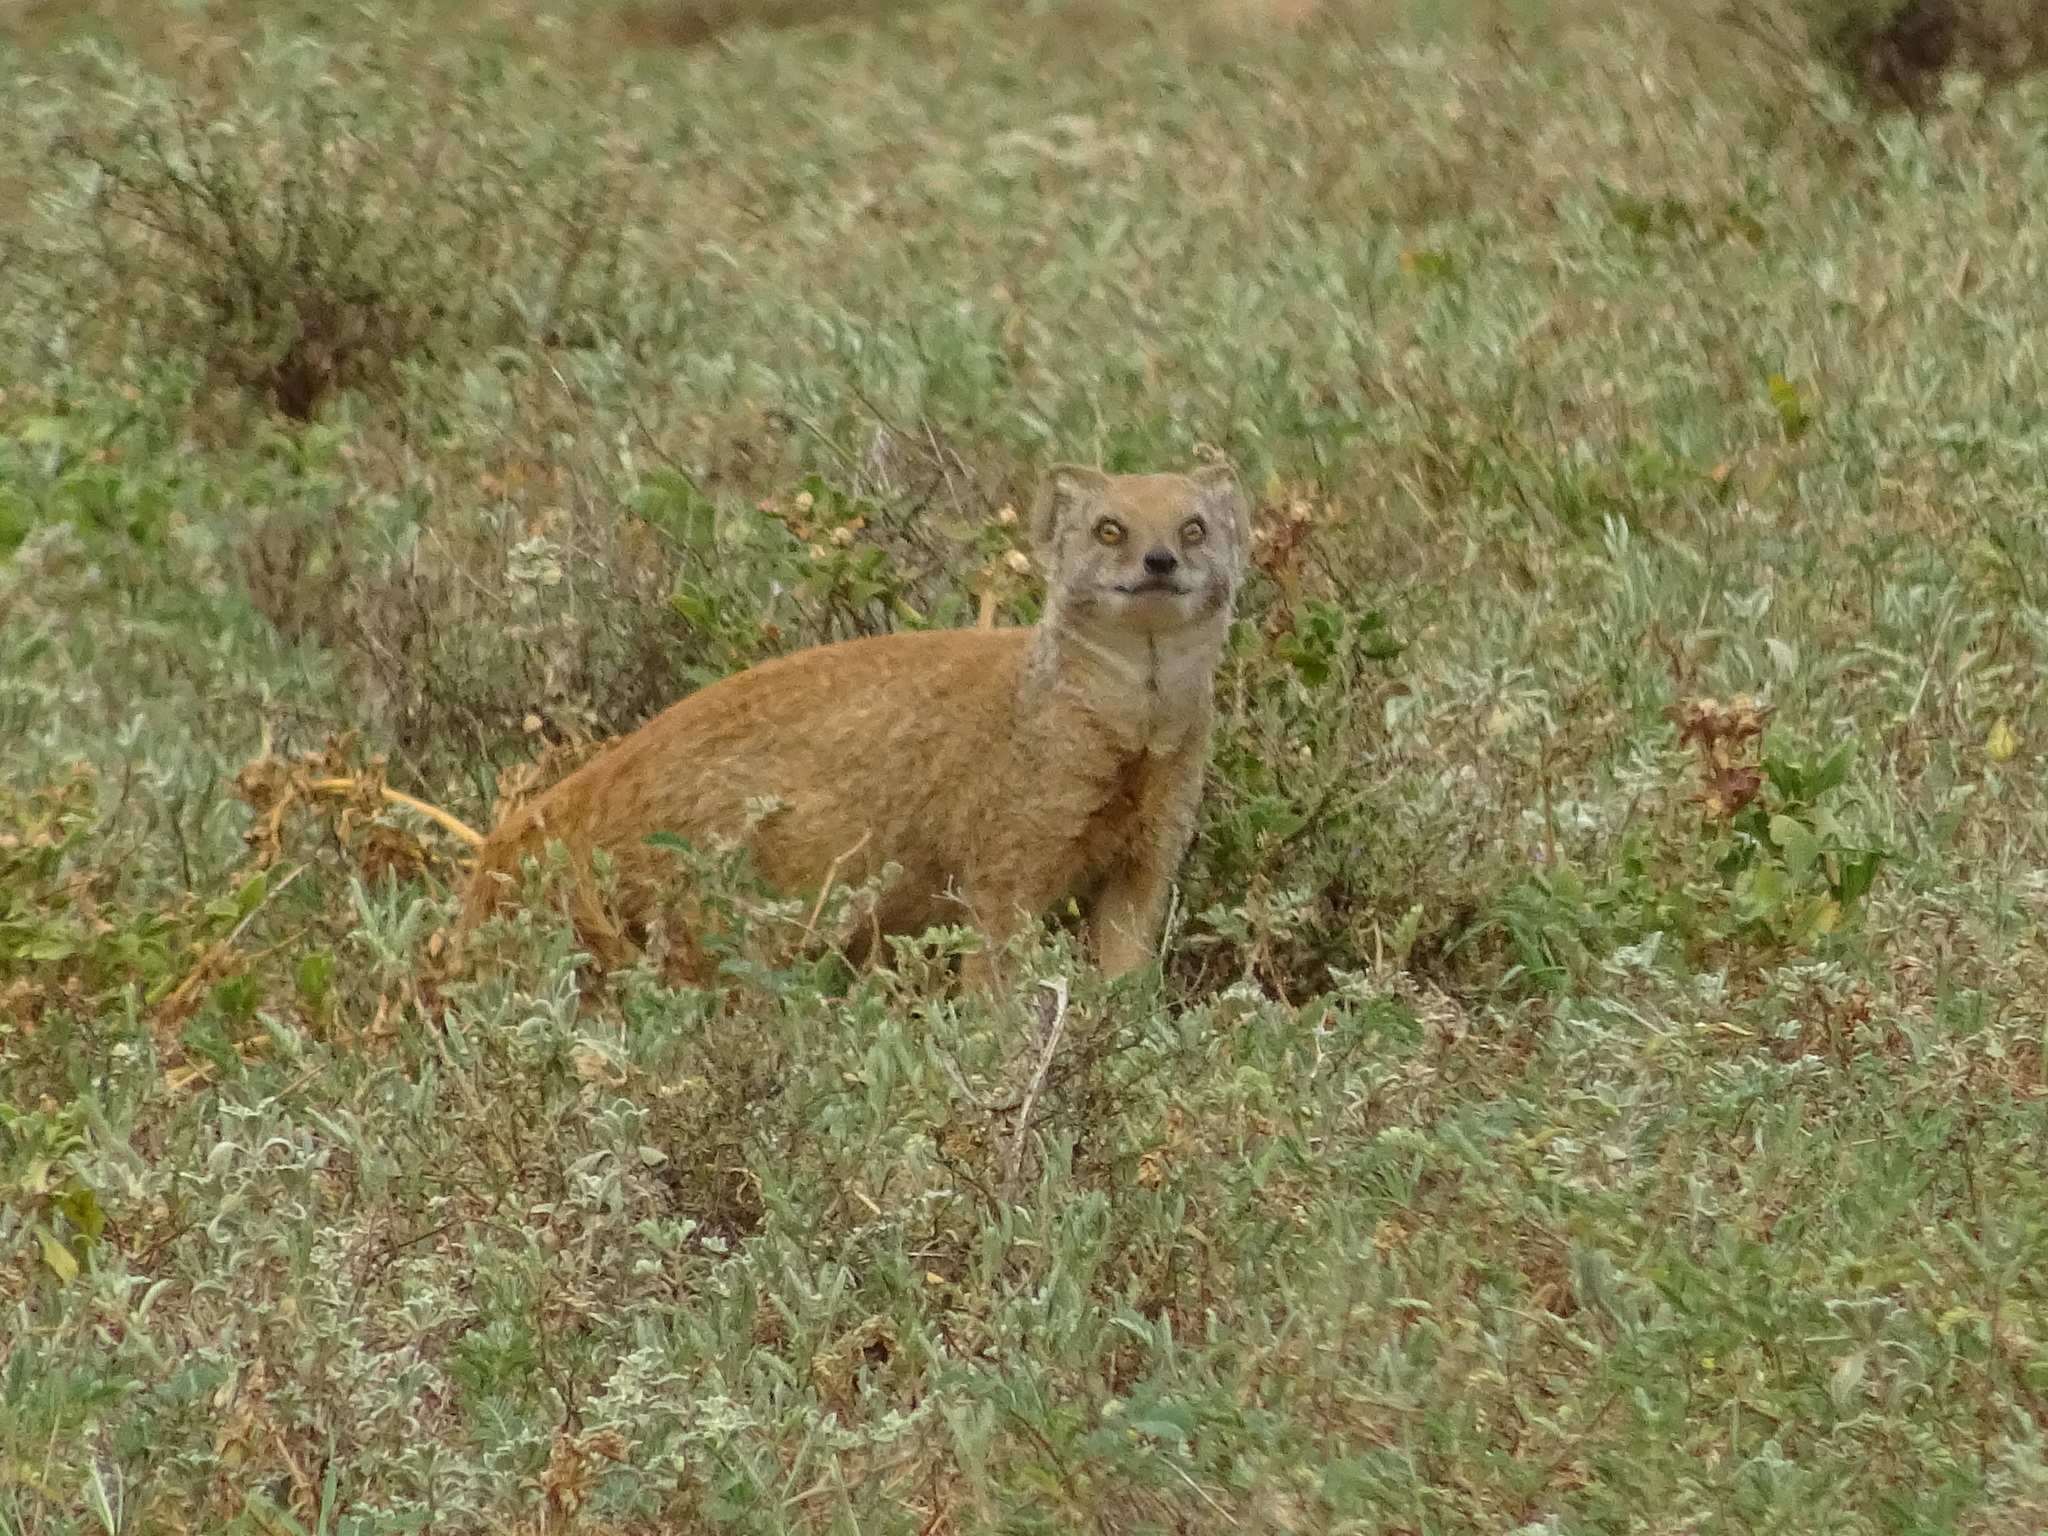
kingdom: Animalia
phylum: Chordata
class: Mammalia
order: Carnivora
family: Herpestidae
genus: Cynictis
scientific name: Cynictis penicillata
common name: Yellow mongoose
